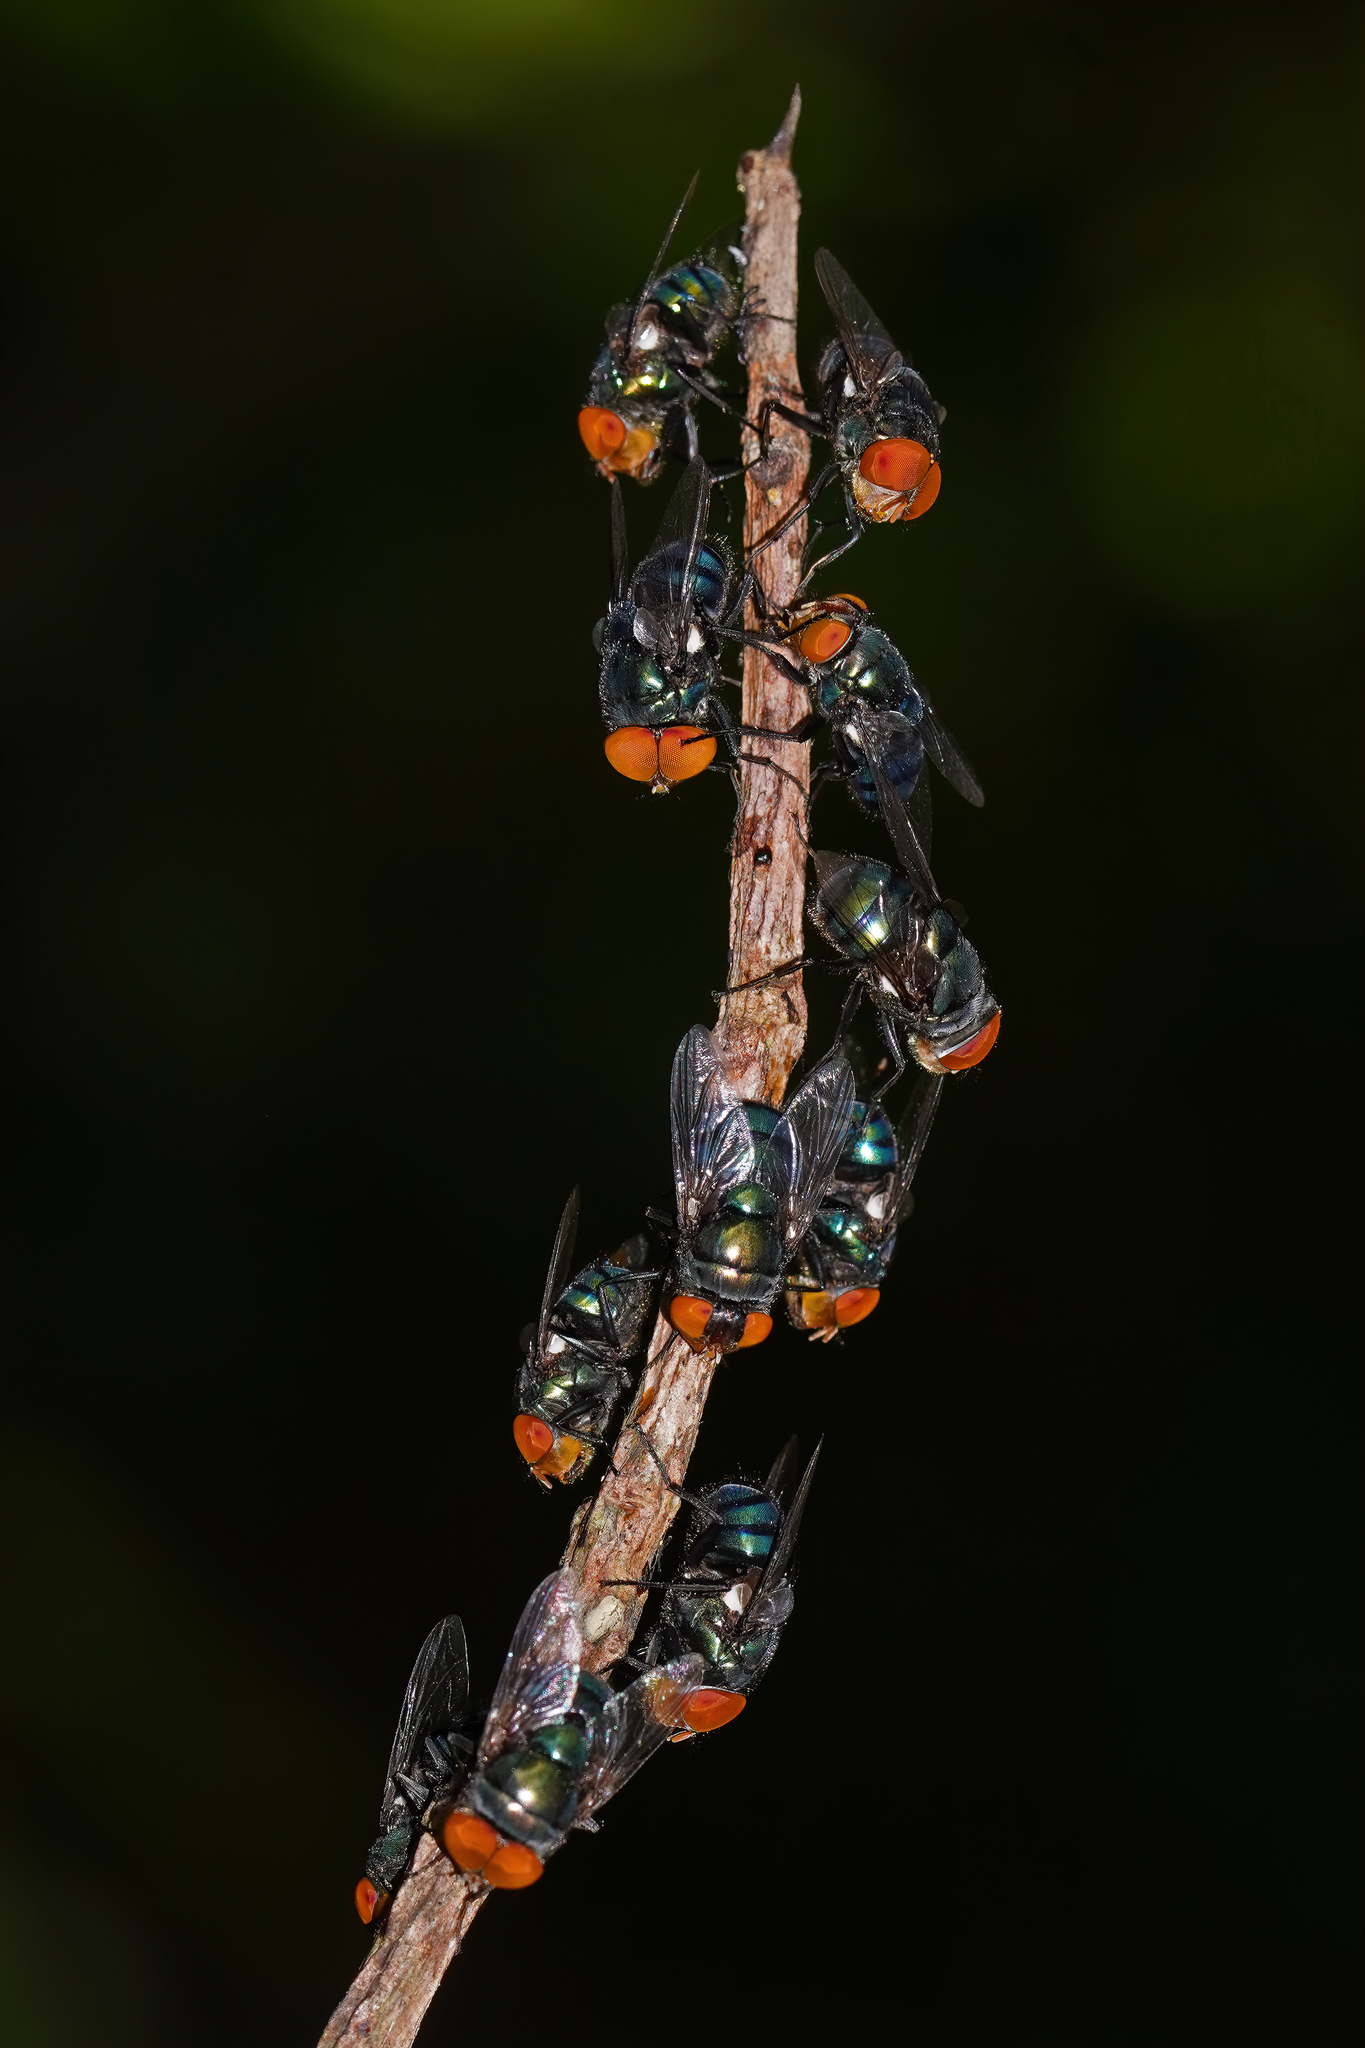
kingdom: Animalia
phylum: Arthropoda
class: Insecta
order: Diptera
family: Calliphoridae
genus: Chrysomya
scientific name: Chrysomya megacephala
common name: Blow fly
